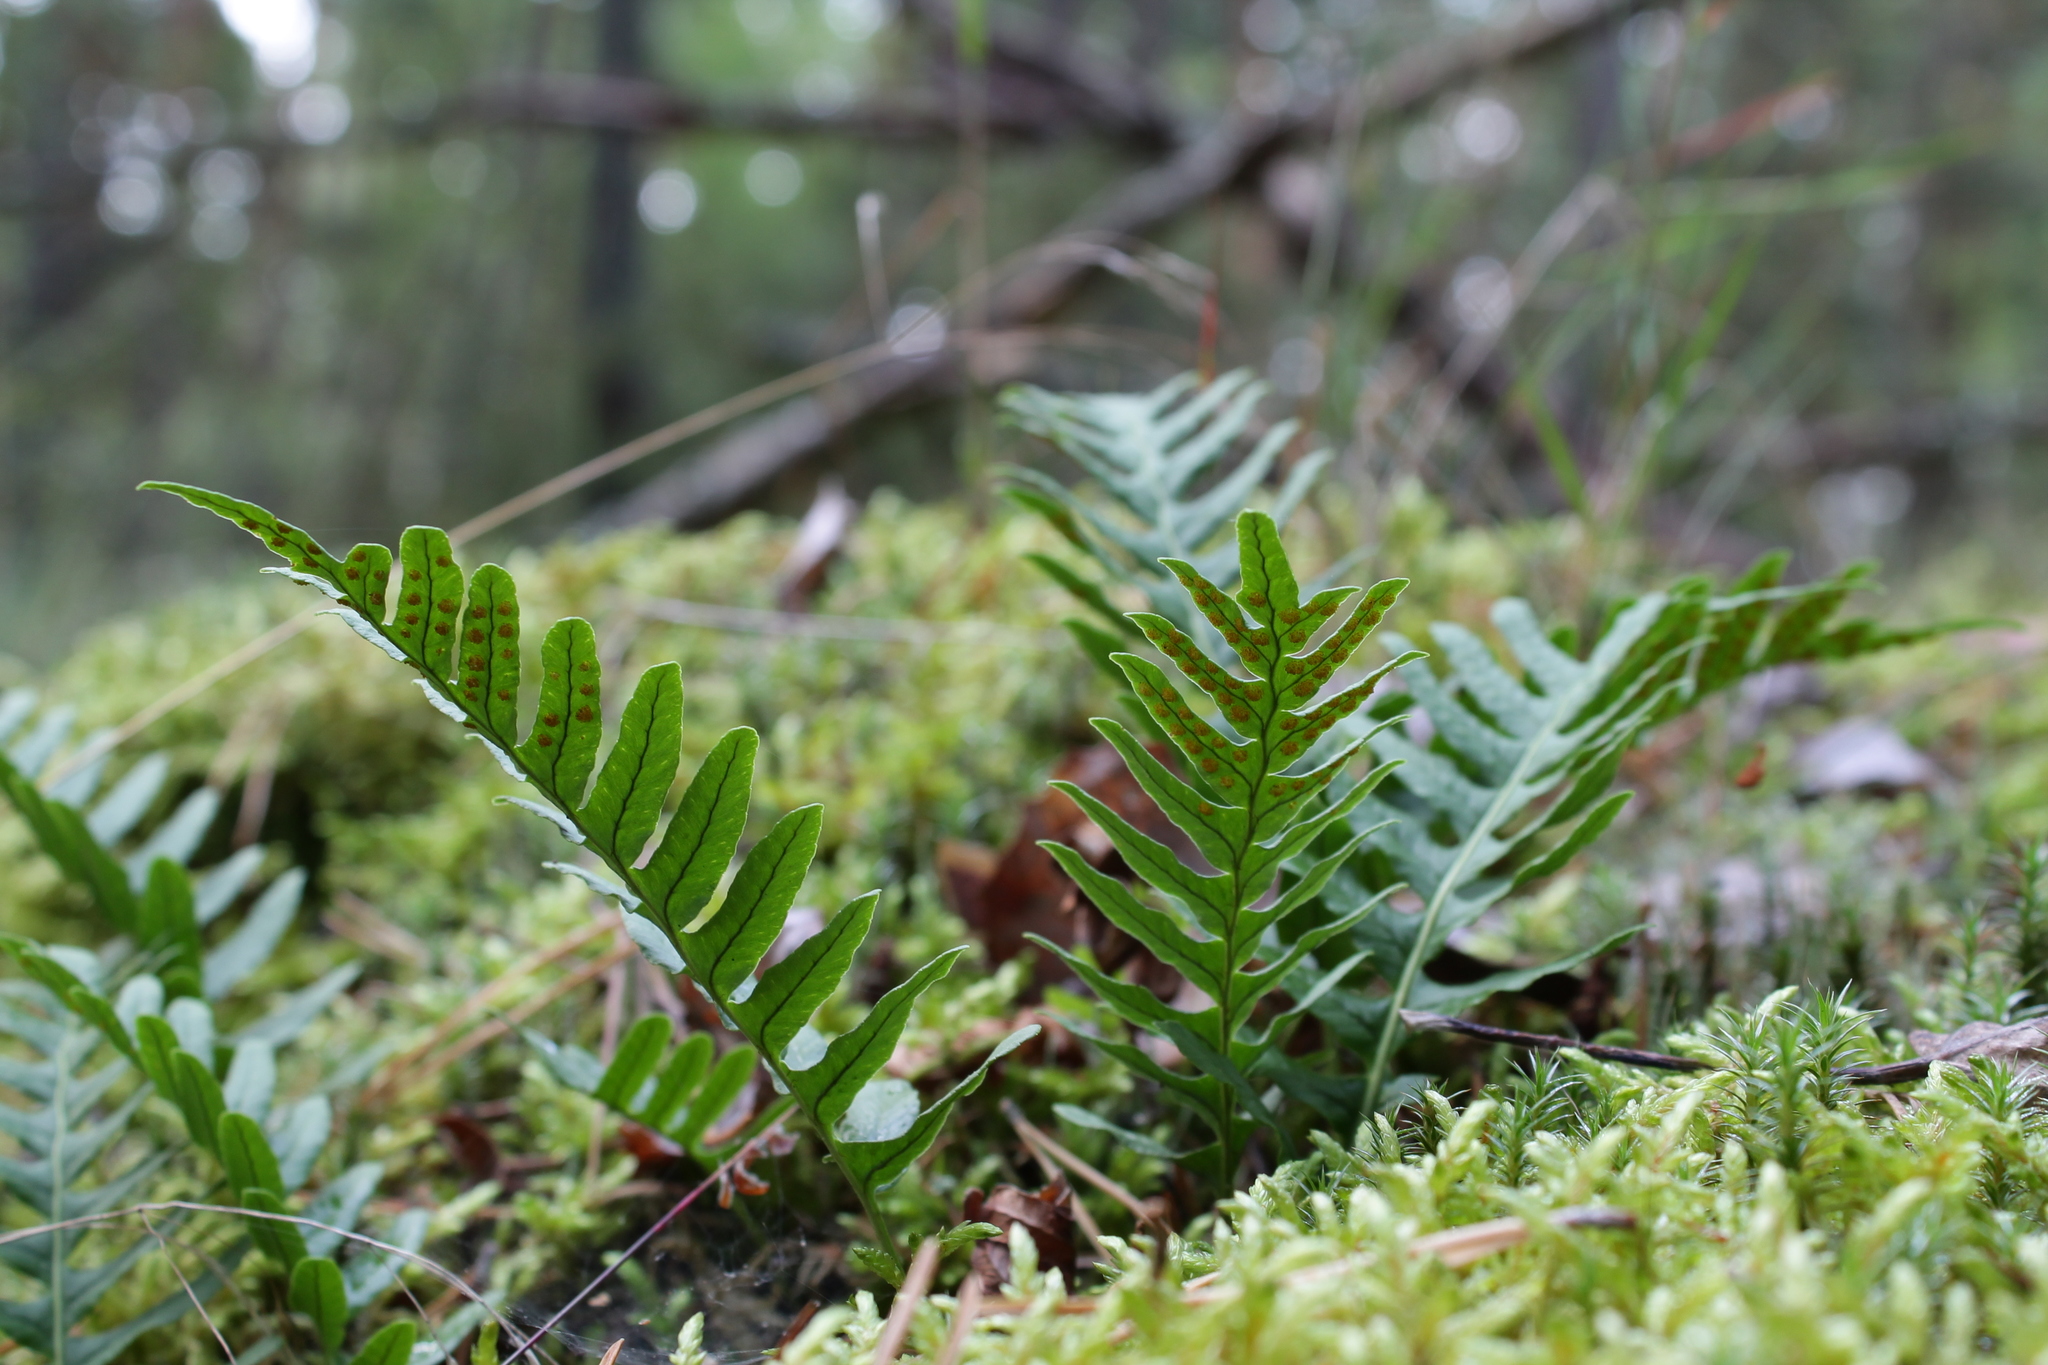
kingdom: Plantae
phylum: Tracheophyta
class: Polypodiopsida
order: Polypodiales
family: Polypodiaceae
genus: Polypodium
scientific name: Polypodium vulgare
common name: Common polypody
